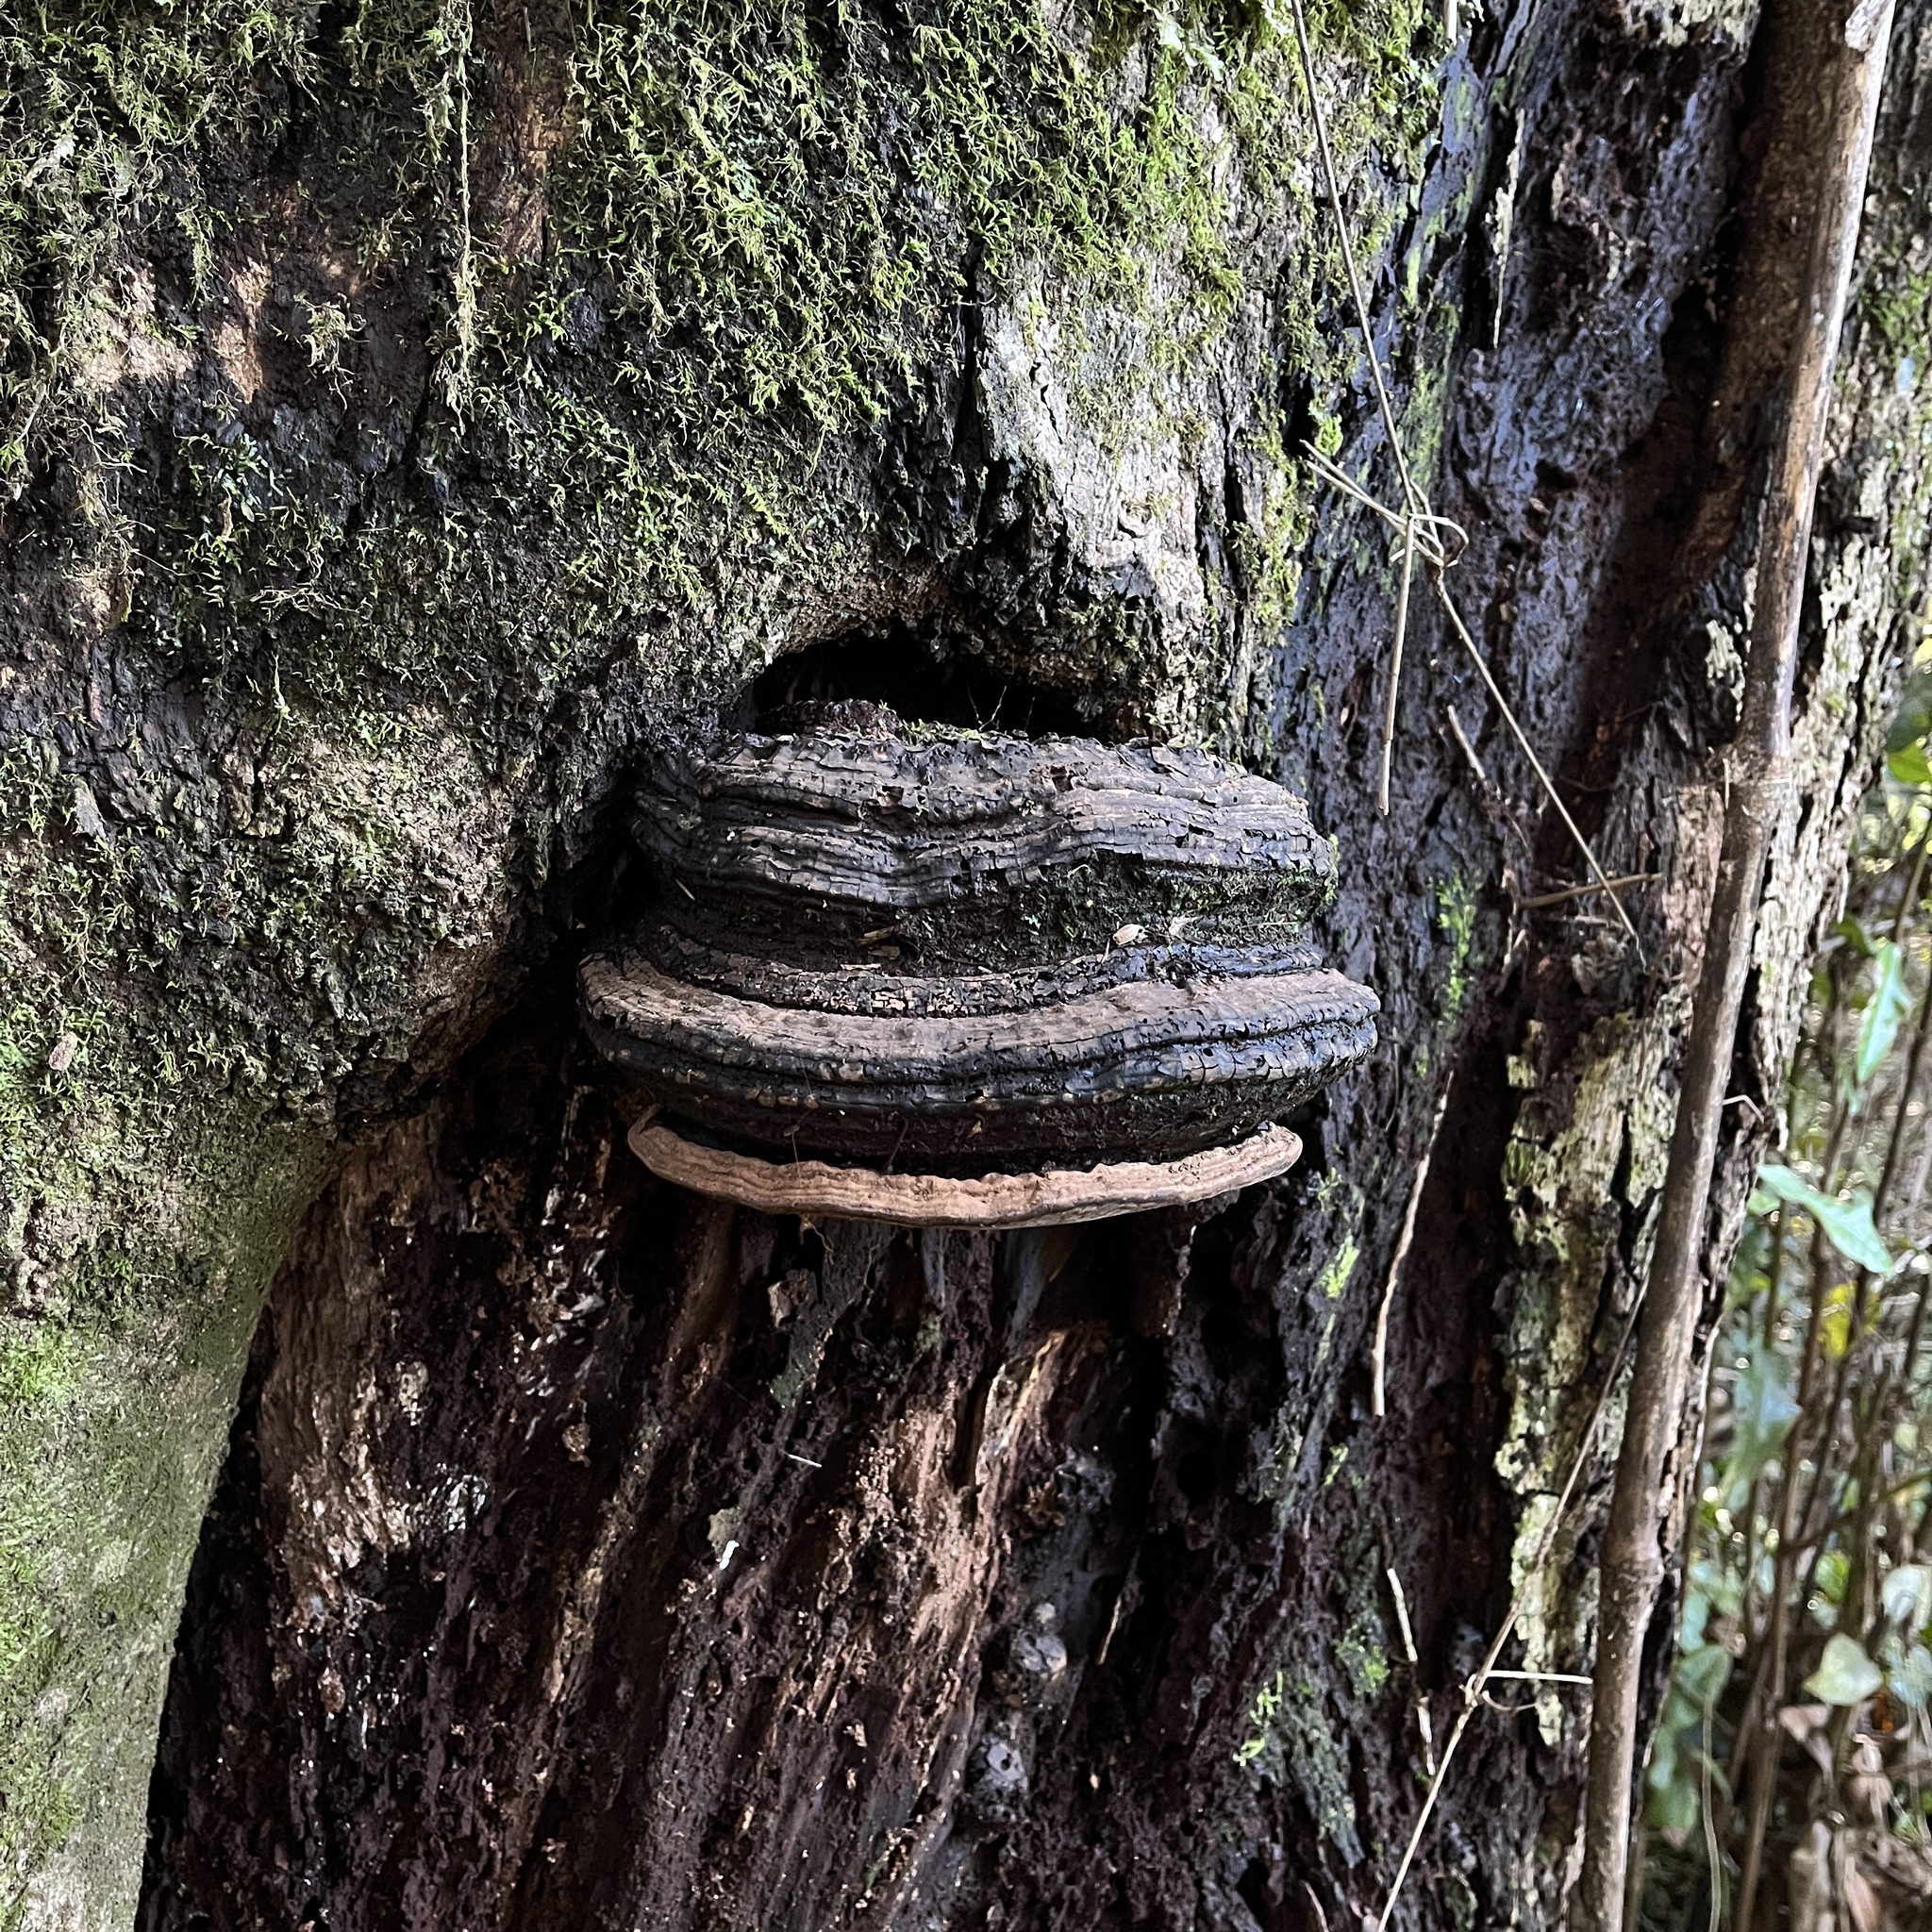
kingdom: Fungi
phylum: Basidiomycota
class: Agaricomycetes
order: Polyporales
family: Polyporaceae
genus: Ganoderma
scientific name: Ganoderma australe
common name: Southern bracket
